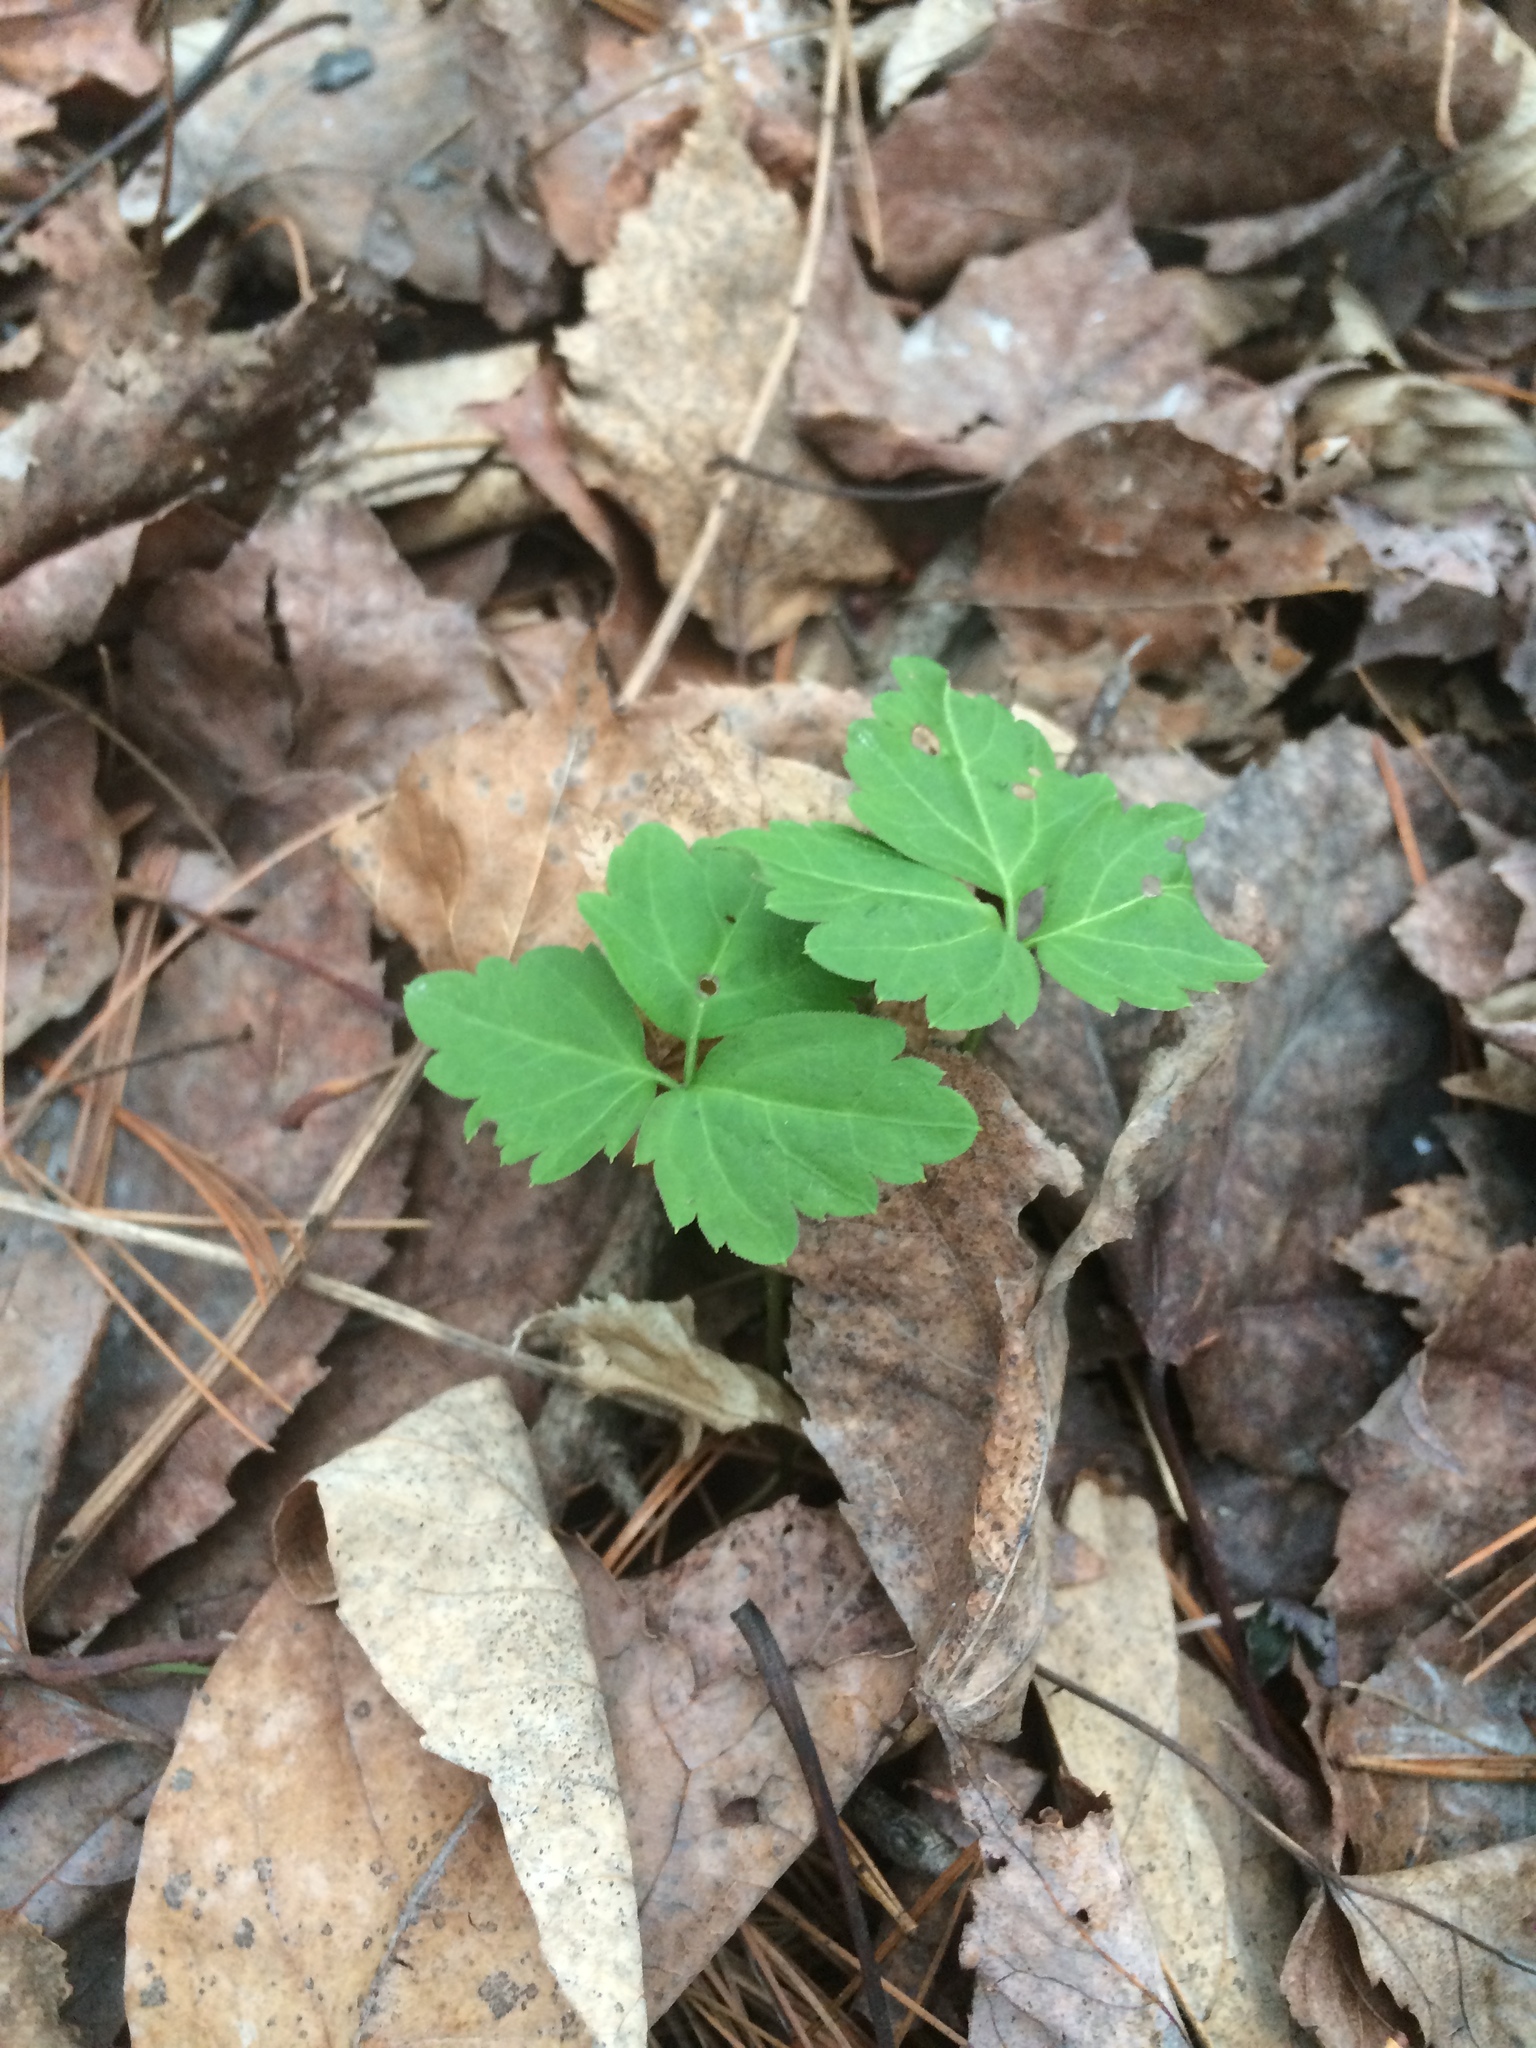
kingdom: Plantae
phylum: Tracheophyta
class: Magnoliopsida
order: Brassicales
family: Brassicaceae
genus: Cardamine
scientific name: Cardamine diphylla
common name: Broad-leaved toothwort
